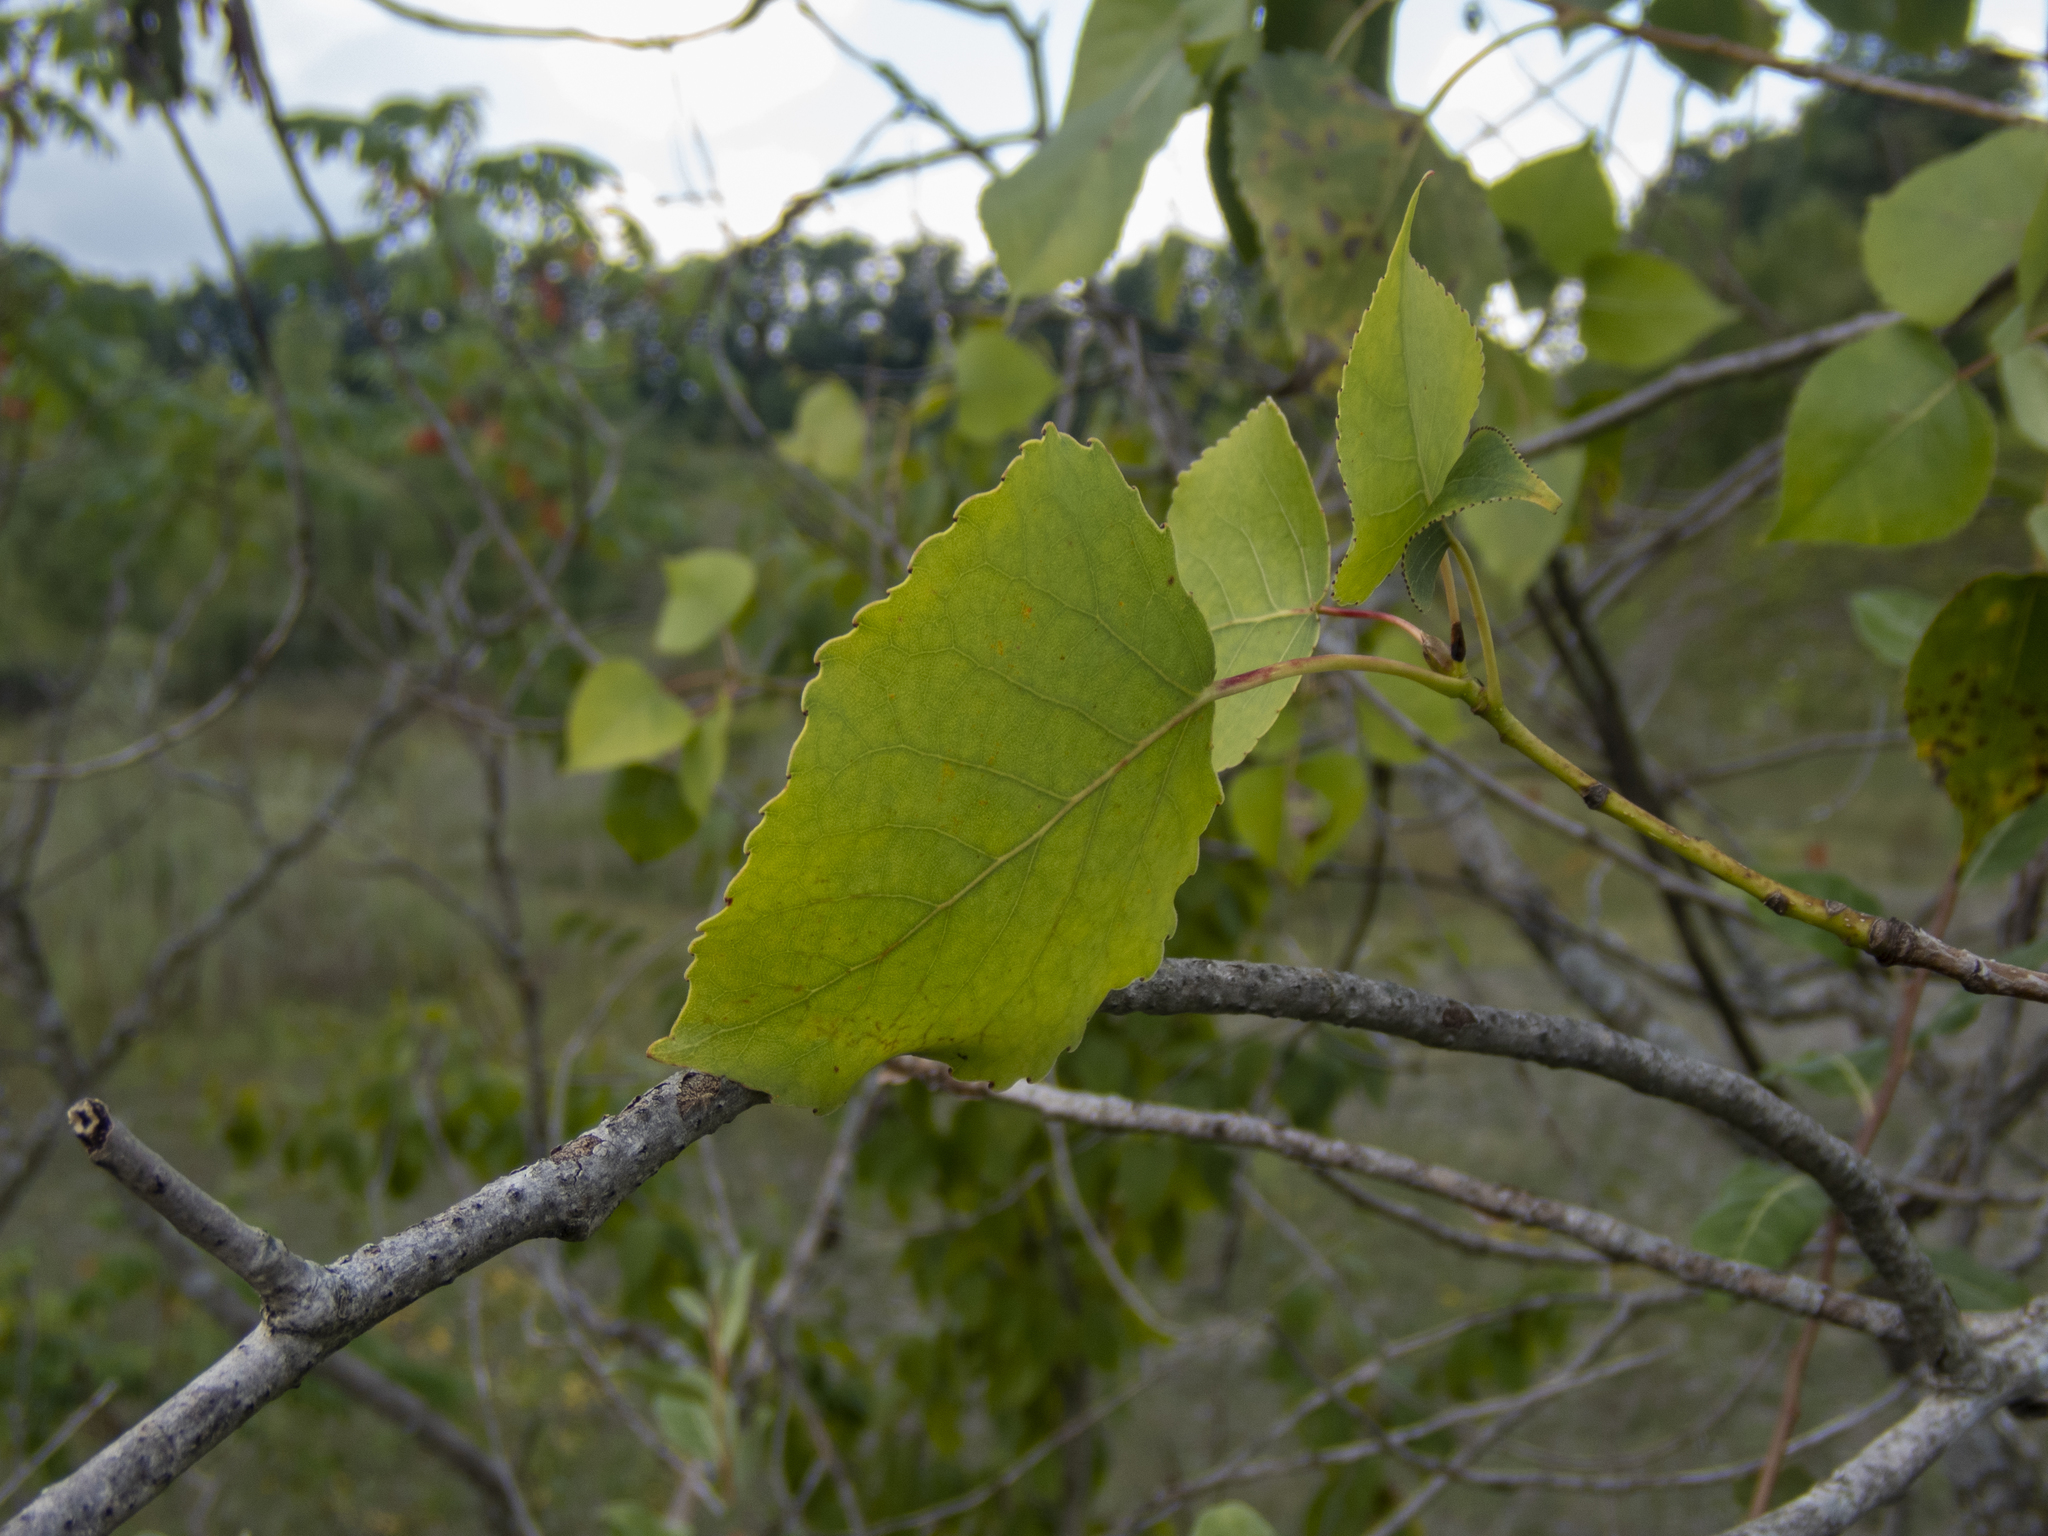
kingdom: Plantae
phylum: Tracheophyta
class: Magnoliopsida
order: Malpighiales
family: Salicaceae
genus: Populus
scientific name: Populus deltoides
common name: Eastern cottonwood
